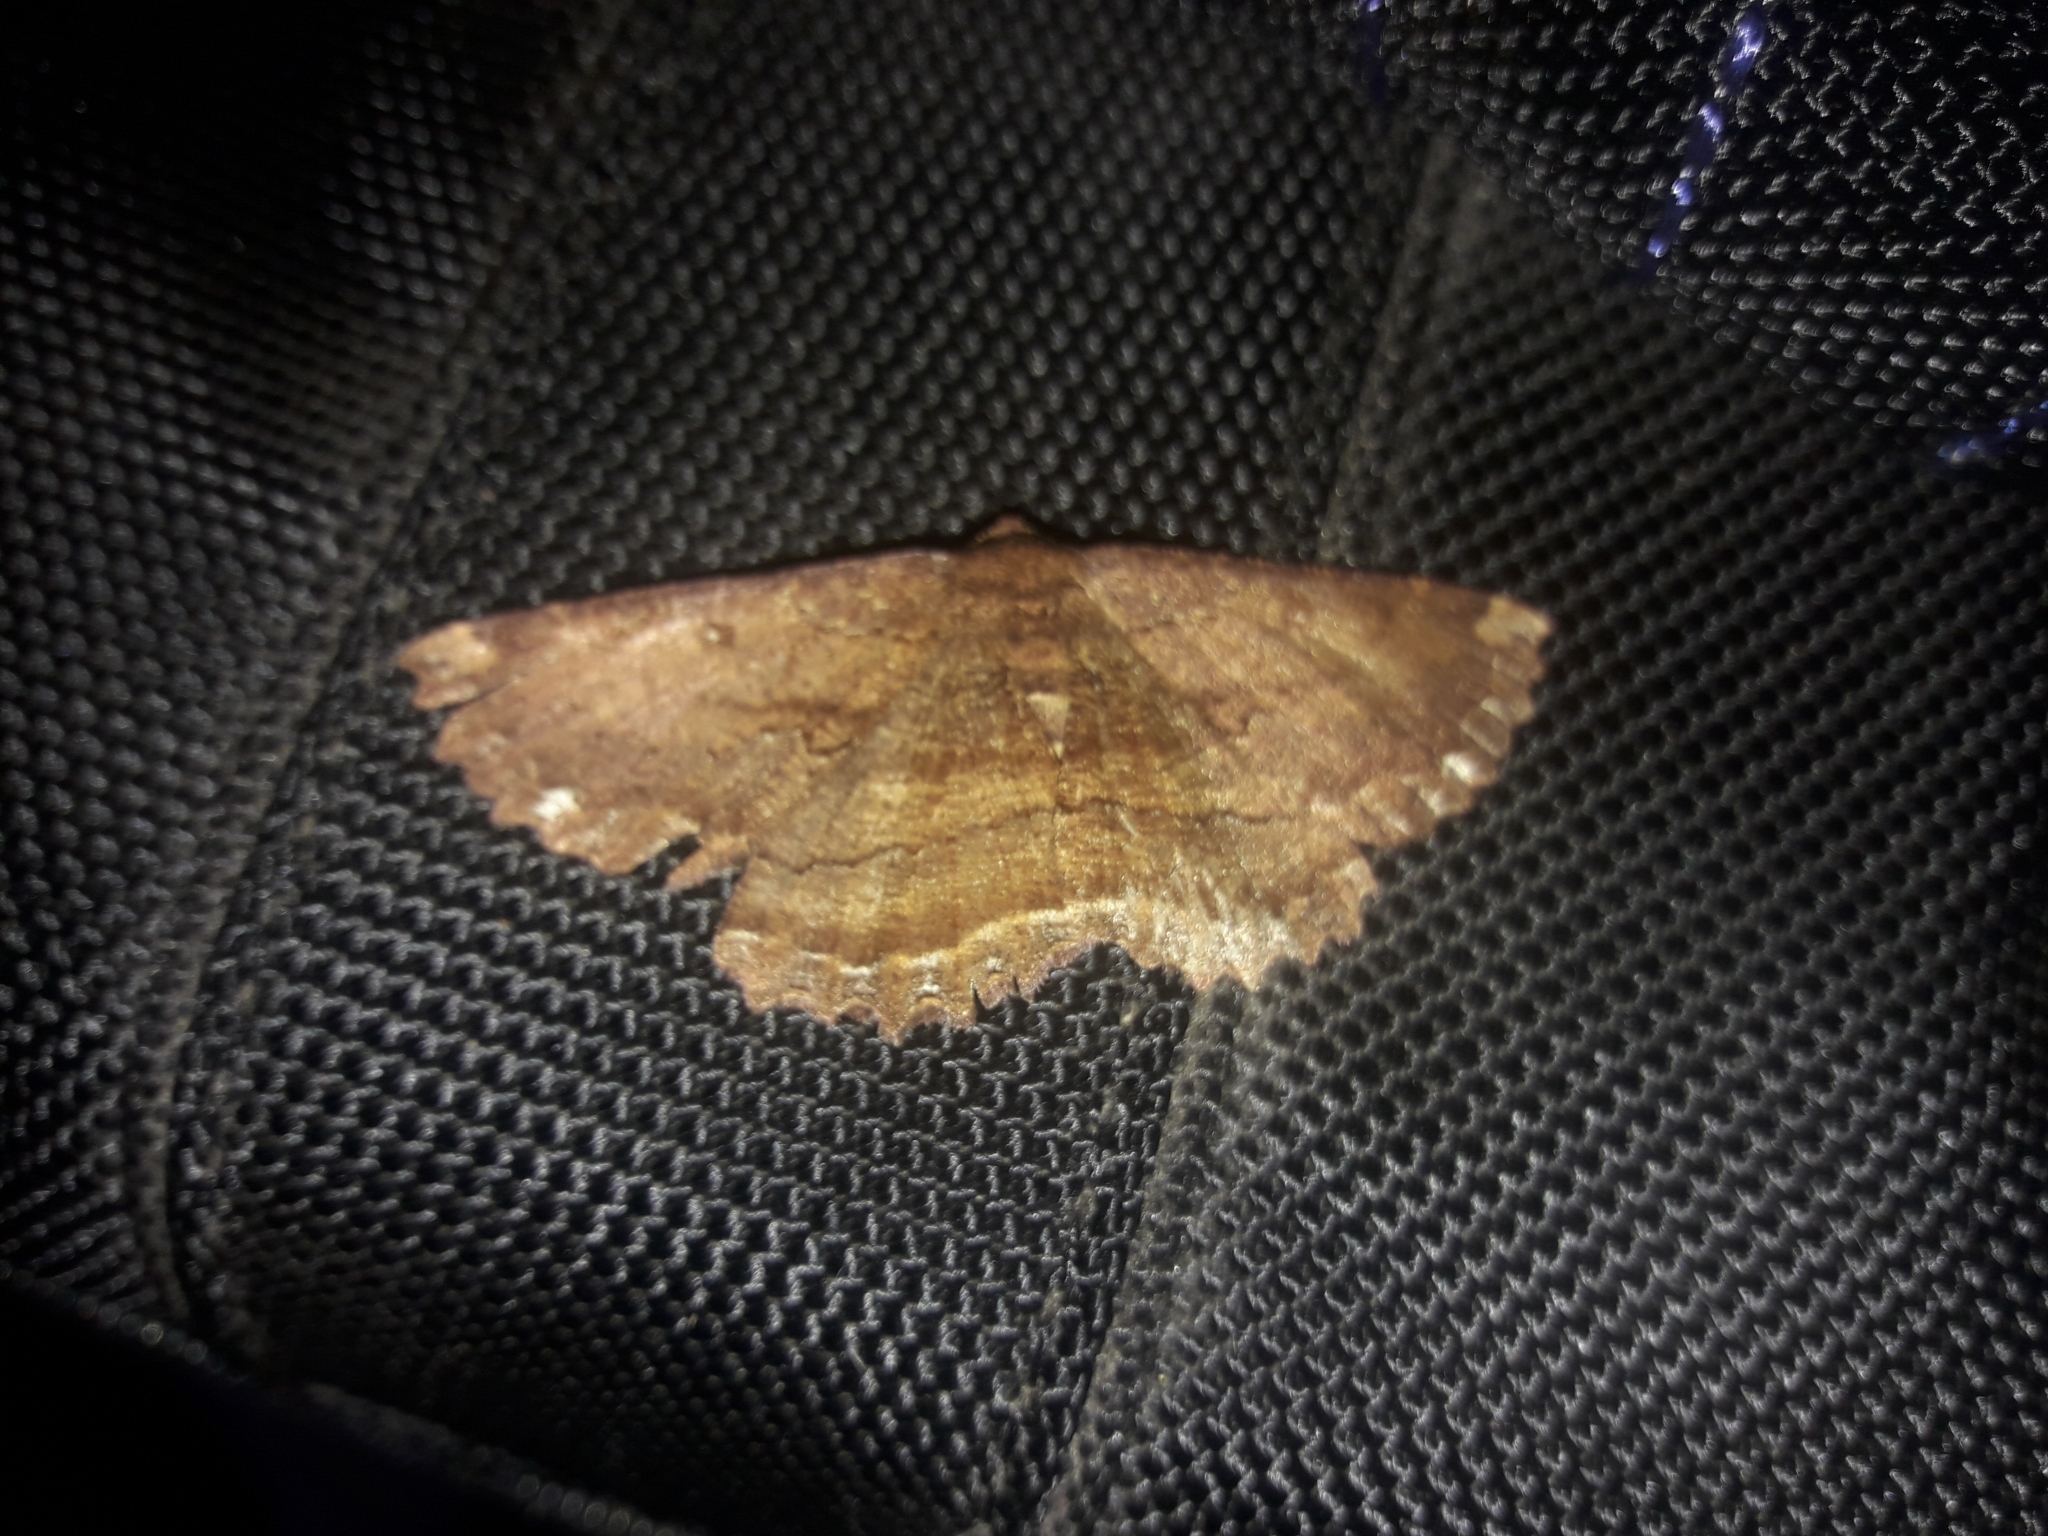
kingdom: Animalia
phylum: Arthropoda
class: Insecta
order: Lepidoptera
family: Geometridae
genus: Gellonia
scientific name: Gellonia dejectaria
